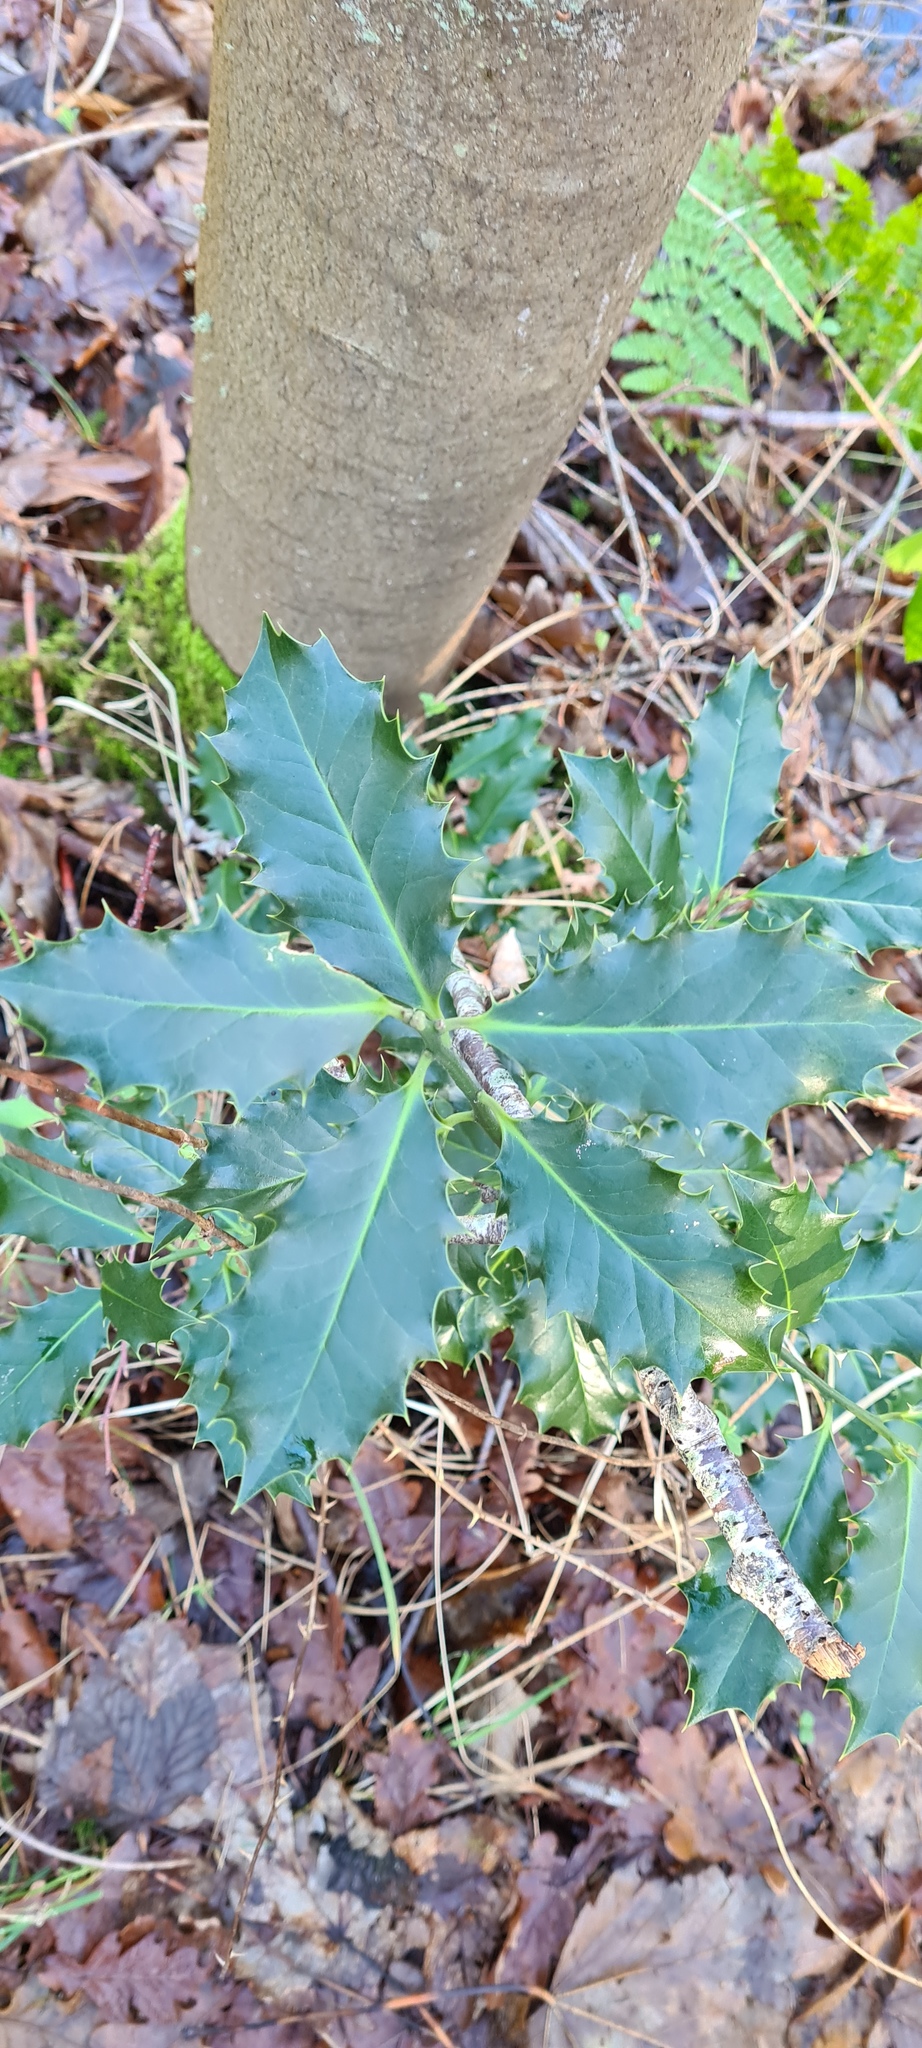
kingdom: Plantae
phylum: Tracheophyta
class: Magnoliopsida
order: Aquifoliales
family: Aquifoliaceae
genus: Ilex
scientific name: Ilex aquifolium
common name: English holly
